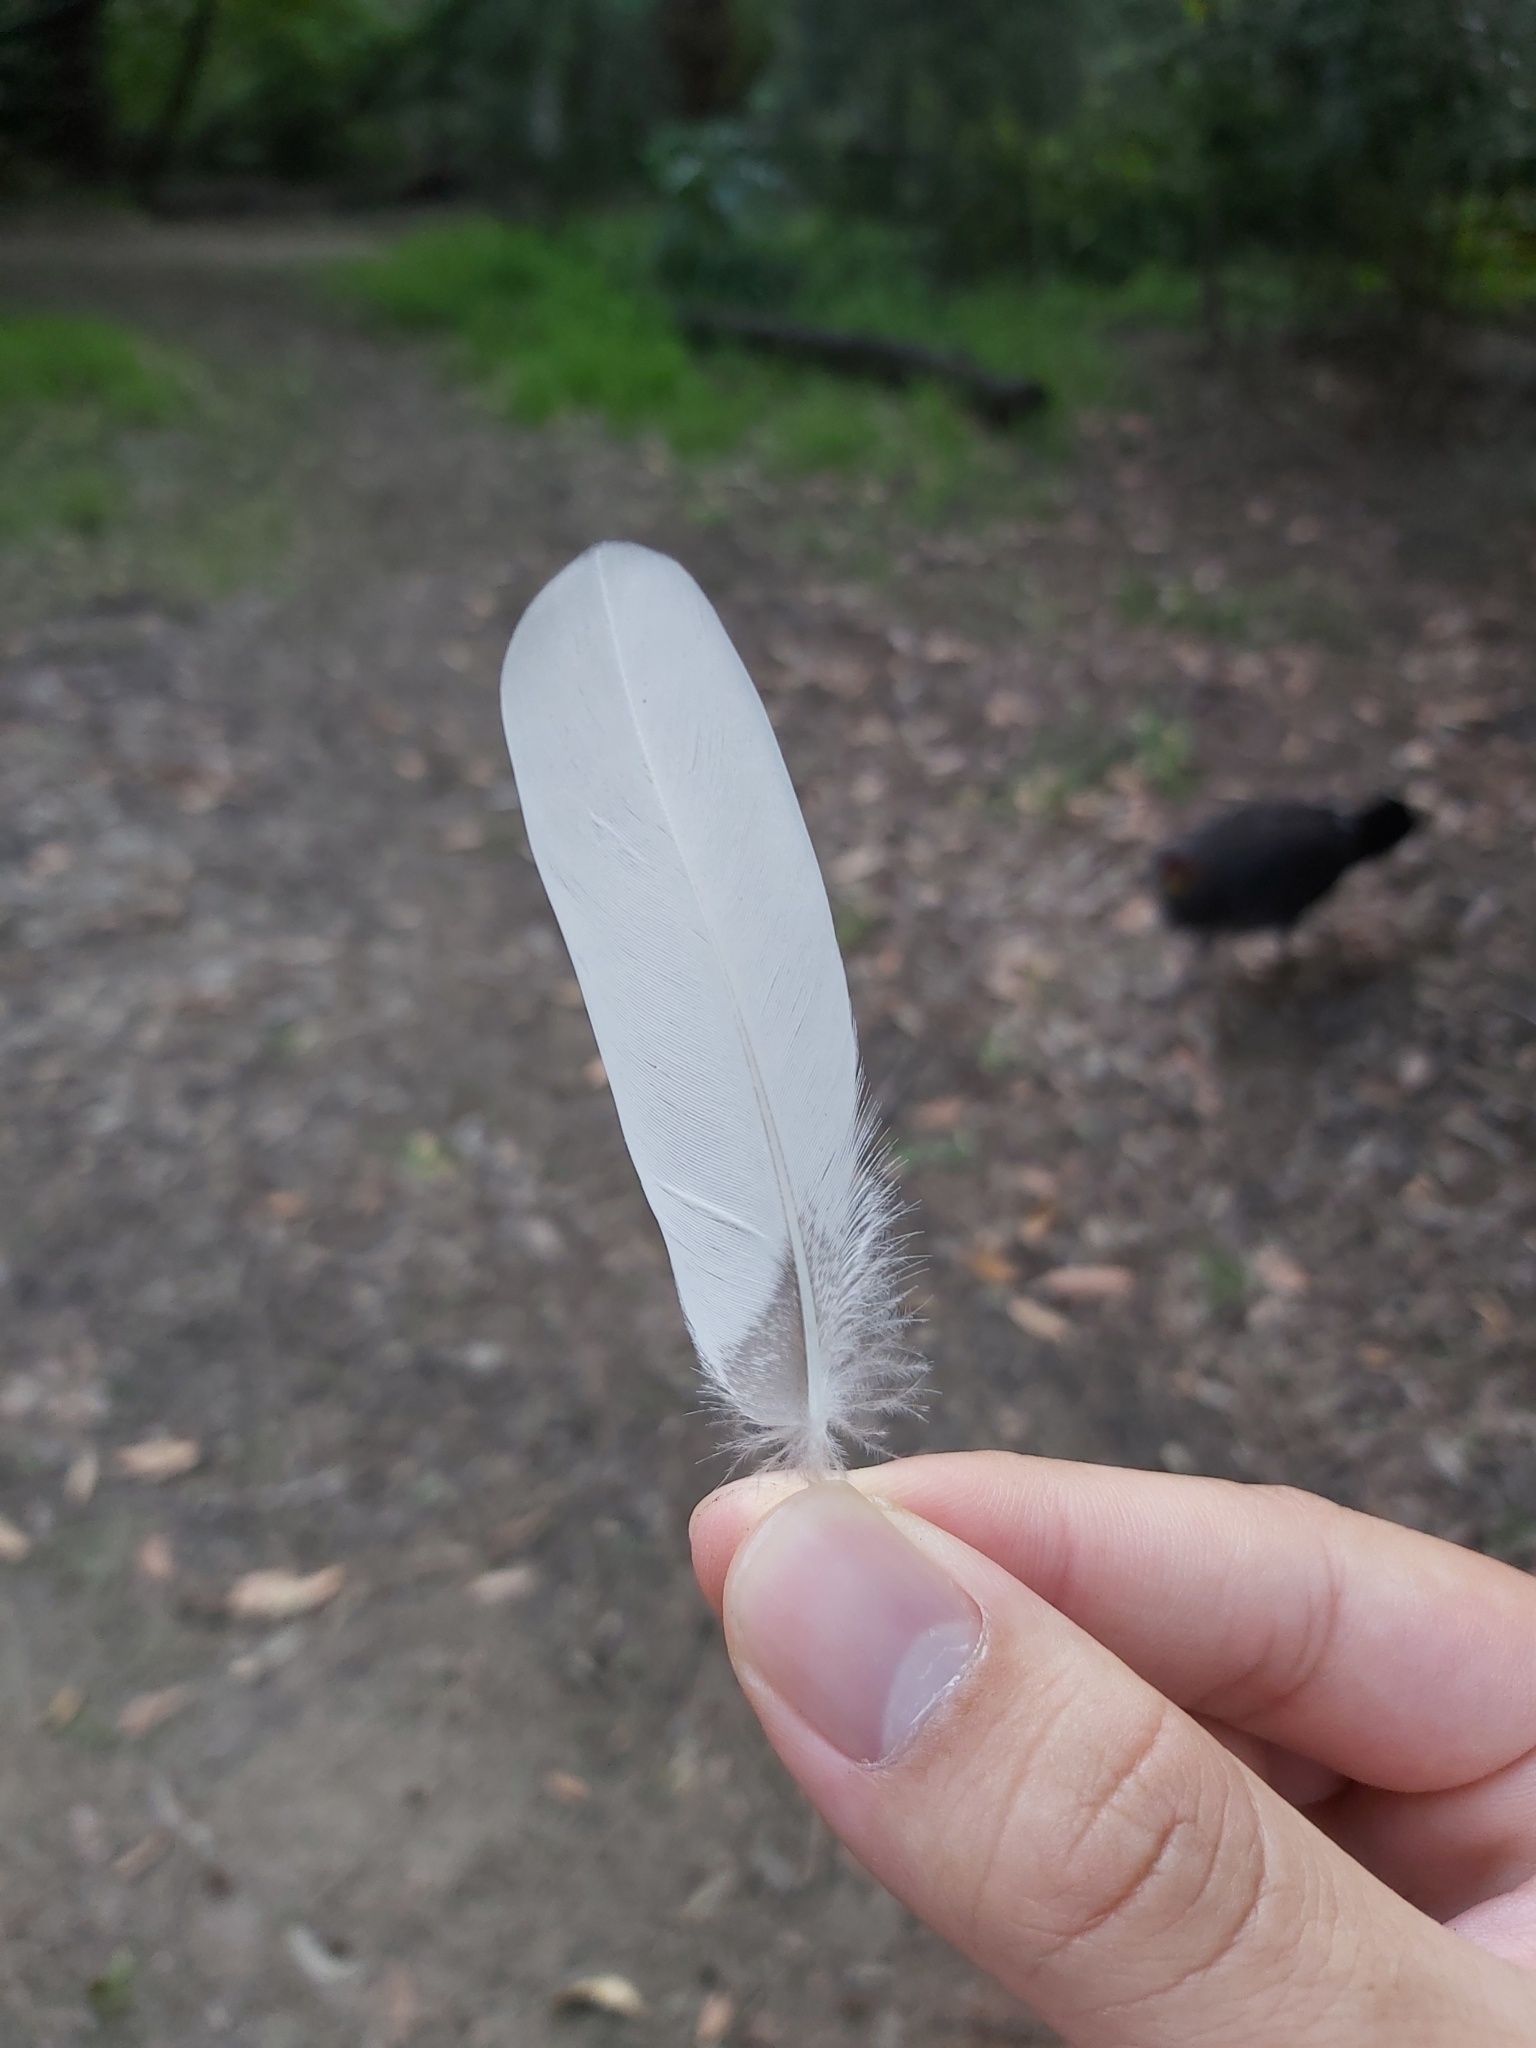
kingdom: Animalia
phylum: Chordata
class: Aves
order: Anseriformes
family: Anatidae
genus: Chenonetta
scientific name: Chenonetta jubata
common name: Maned duck
